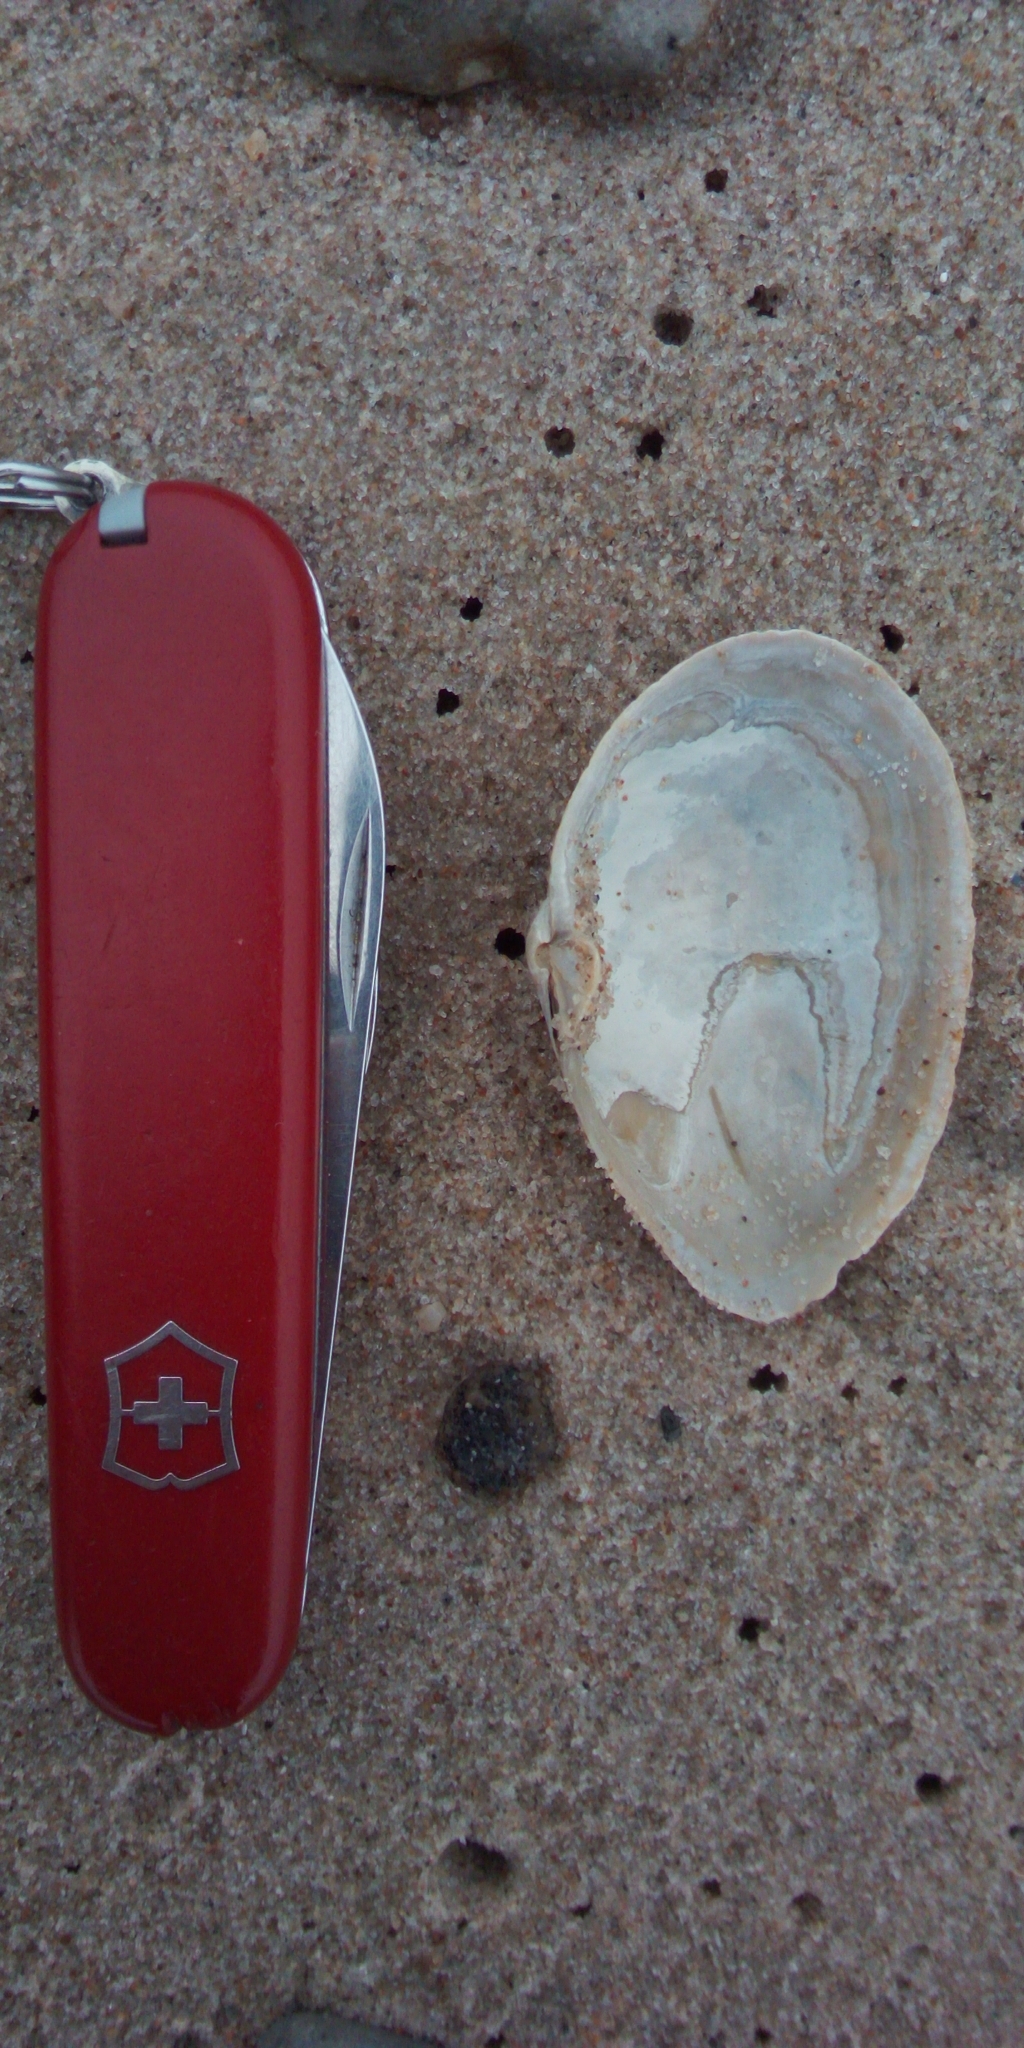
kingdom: Animalia
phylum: Mollusca
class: Bivalvia
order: Myida
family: Myidae
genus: Mya
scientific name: Mya arenaria
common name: Soft-shelled clam
